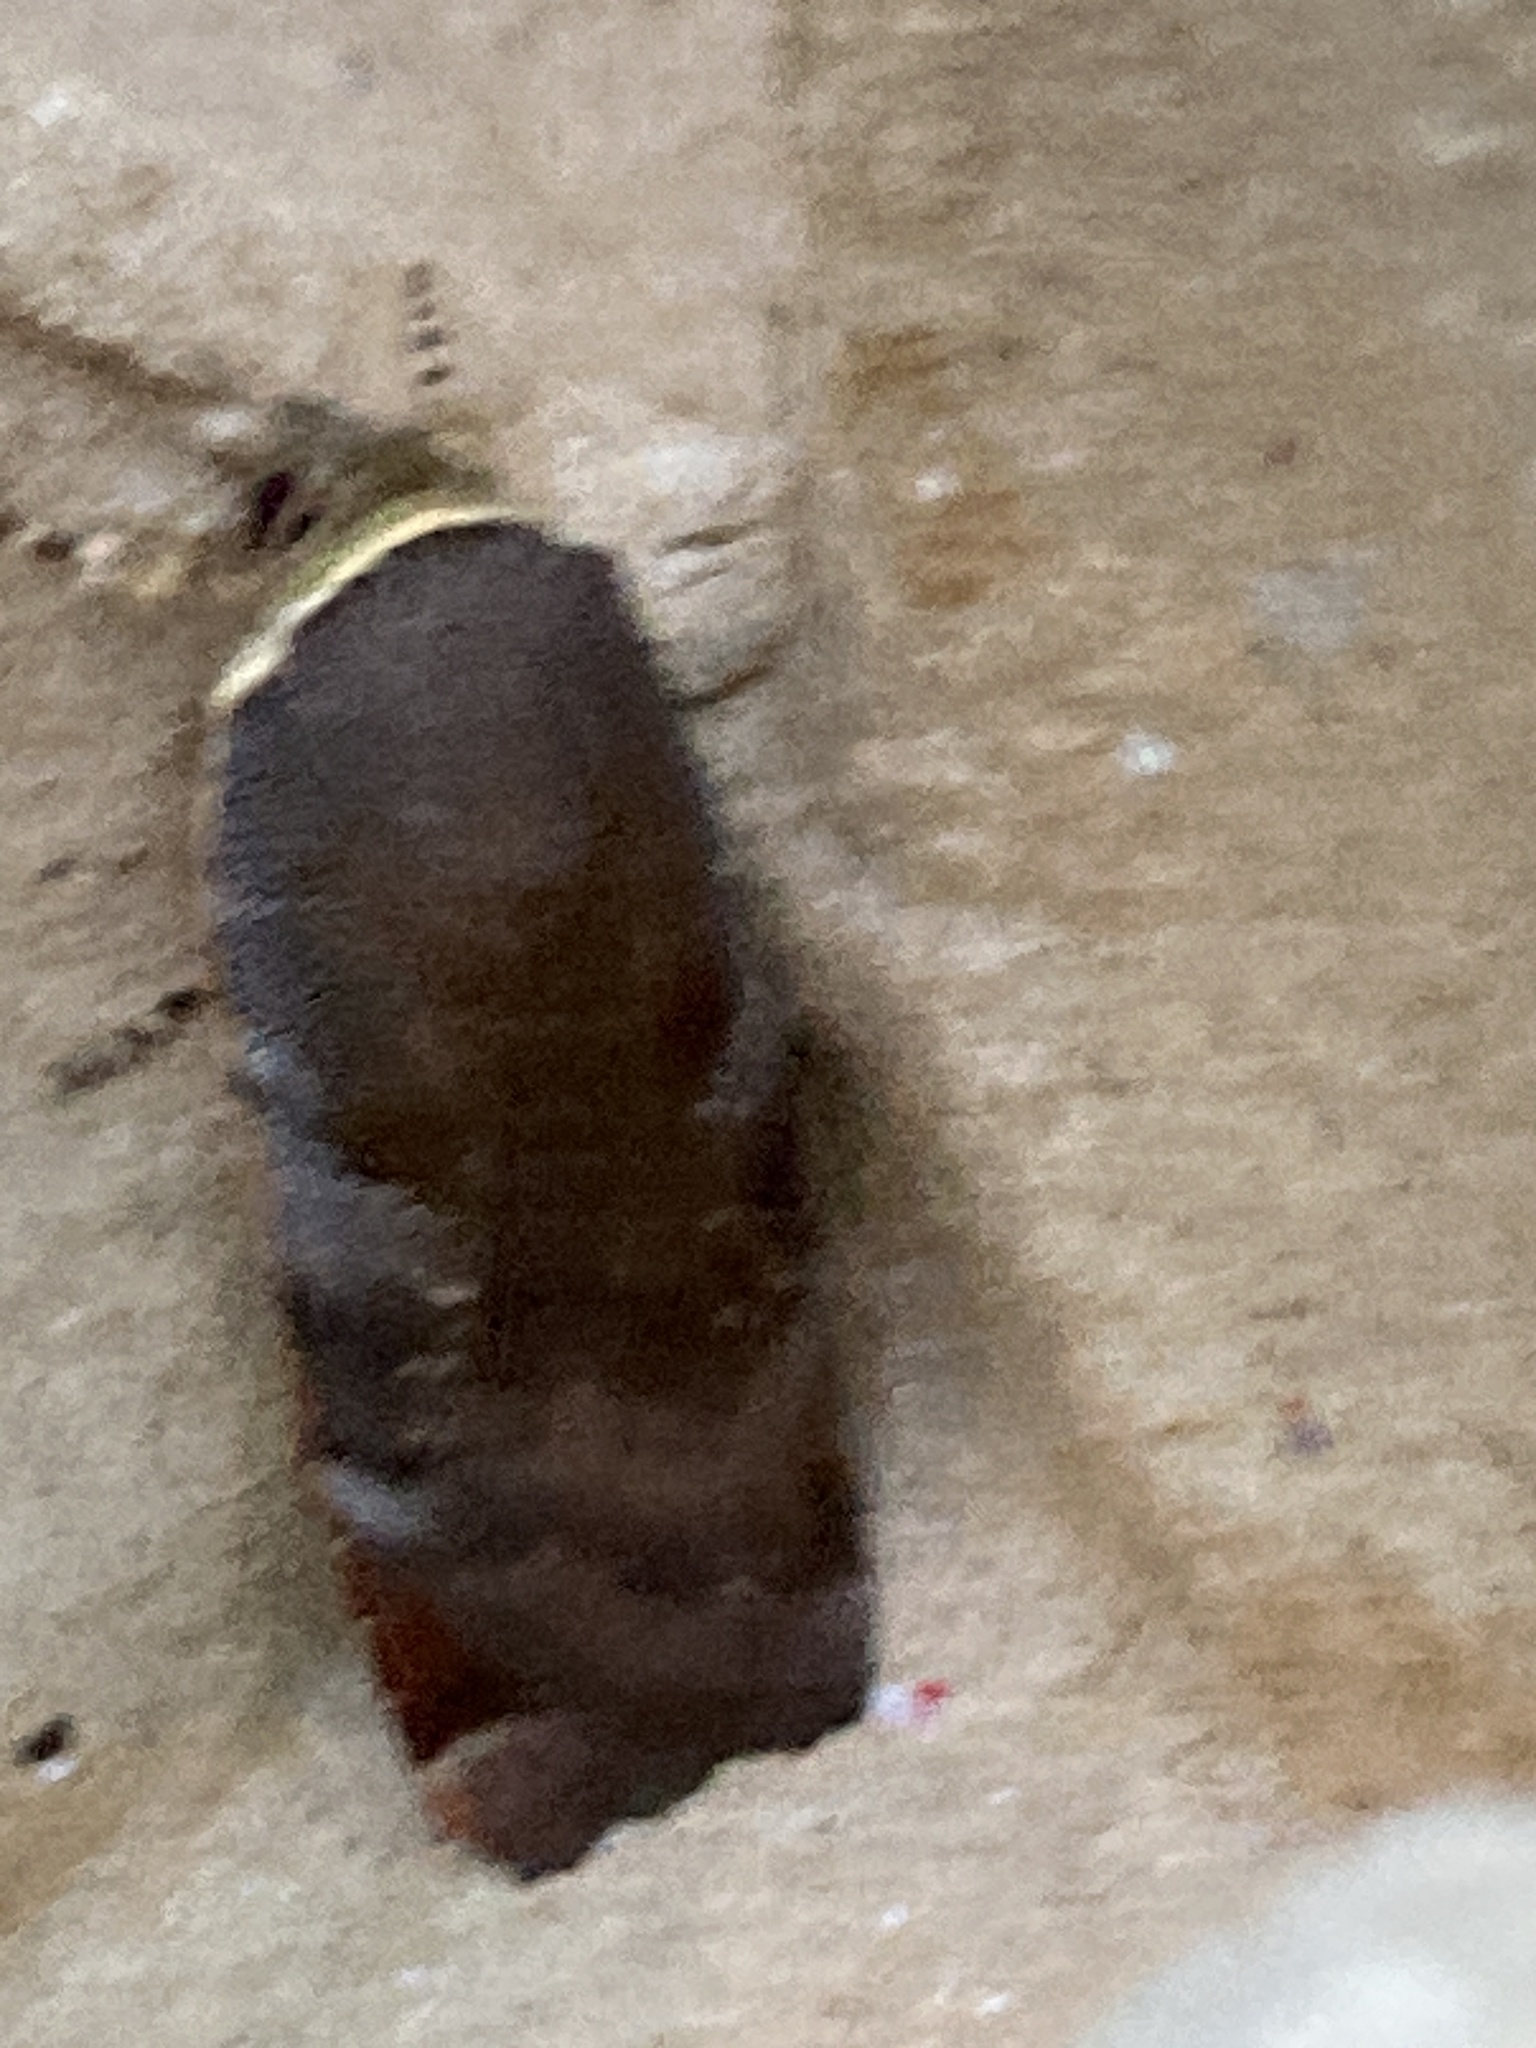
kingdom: Animalia
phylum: Arthropoda
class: Insecta
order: Lepidoptera
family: Noctuidae
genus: Noctua
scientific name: Noctua
